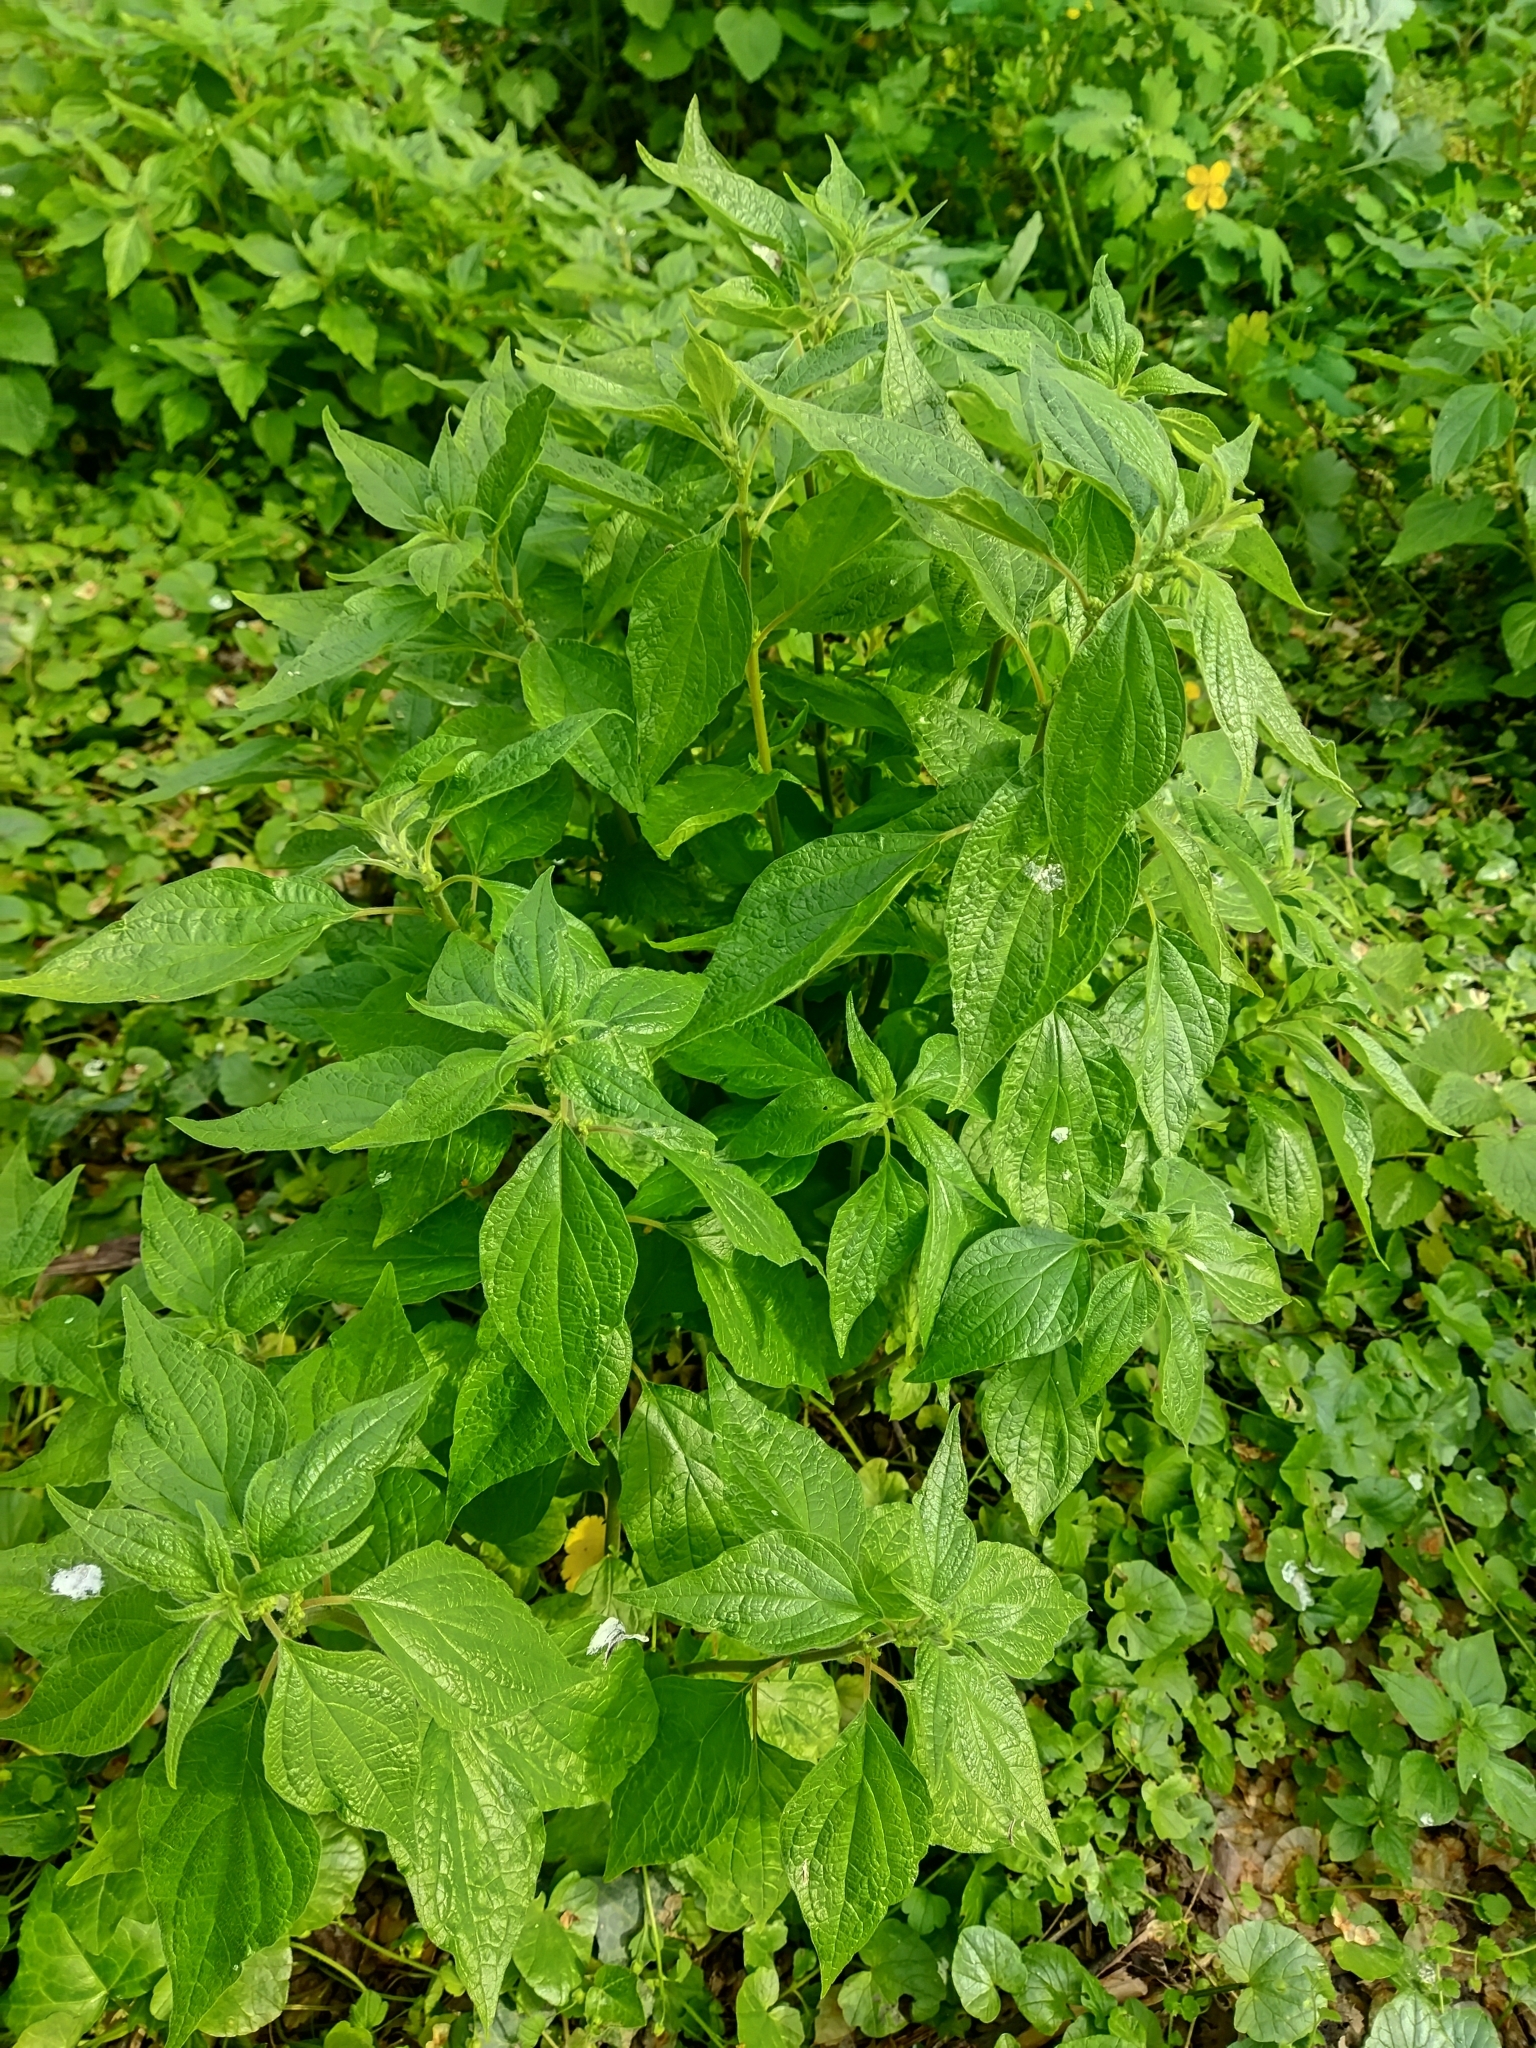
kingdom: Plantae
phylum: Tracheophyta
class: Magnoliopsida
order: Rosales
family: Urticaceae
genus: Parietaria
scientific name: Parietaria officinalis
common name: Eastern pellitory-of-the-wall
